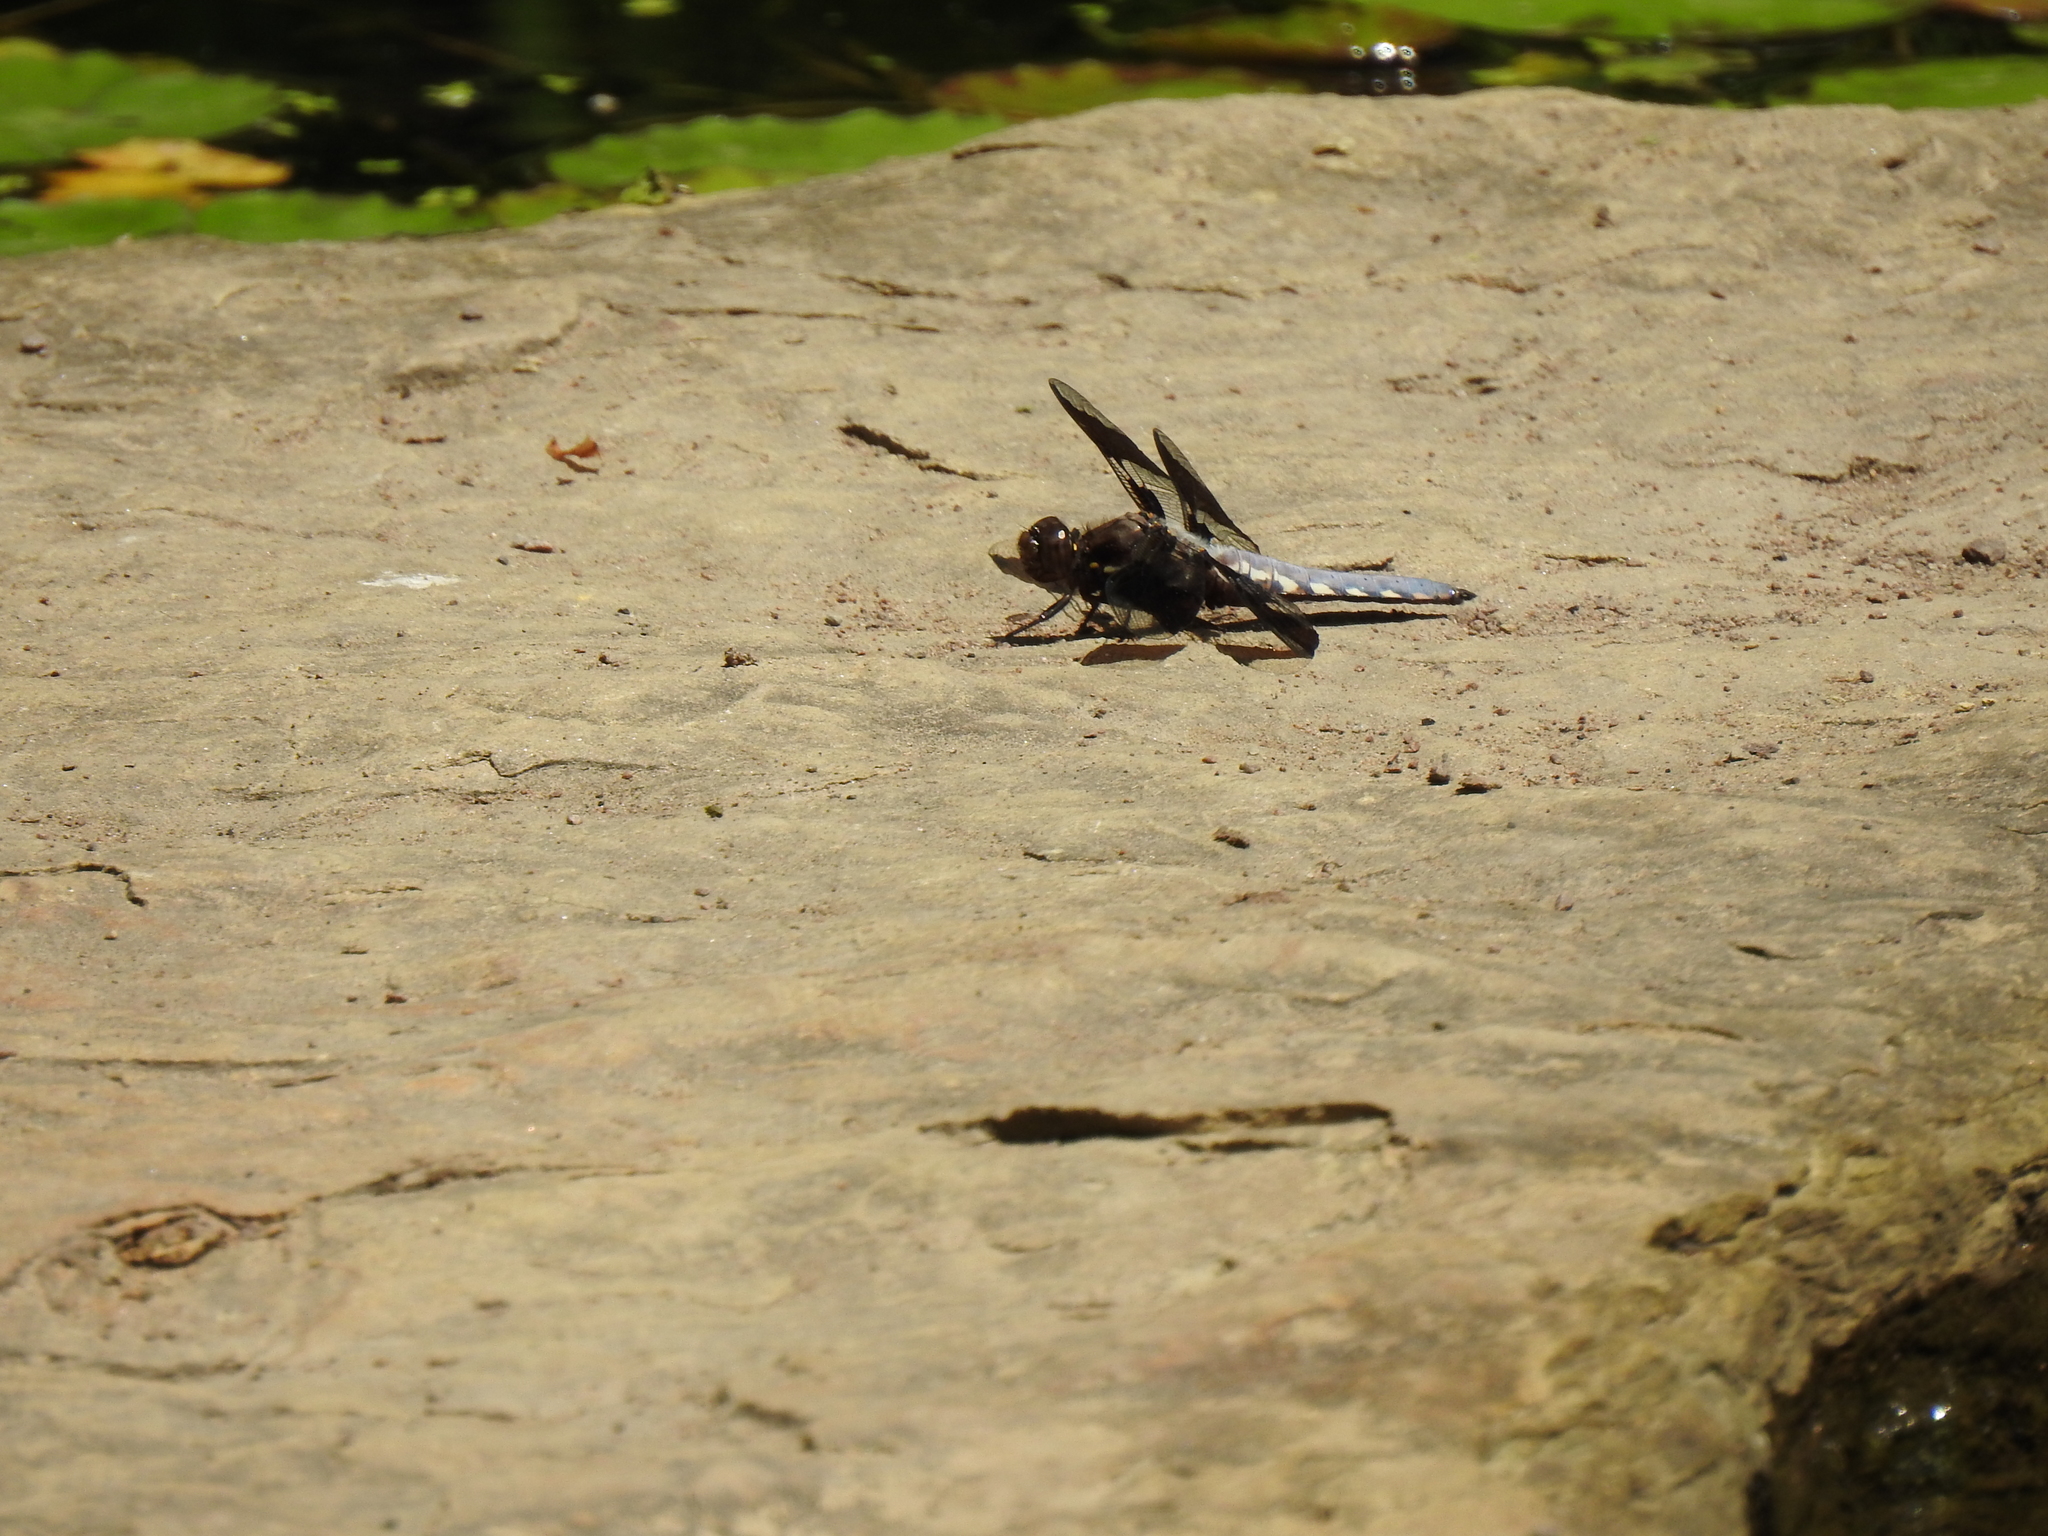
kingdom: Animalia
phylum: Arthropoda
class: Insecta
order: Odonata
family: Libellulidae
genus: Plathemis
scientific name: Plathemis lydia
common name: Common whitetail
